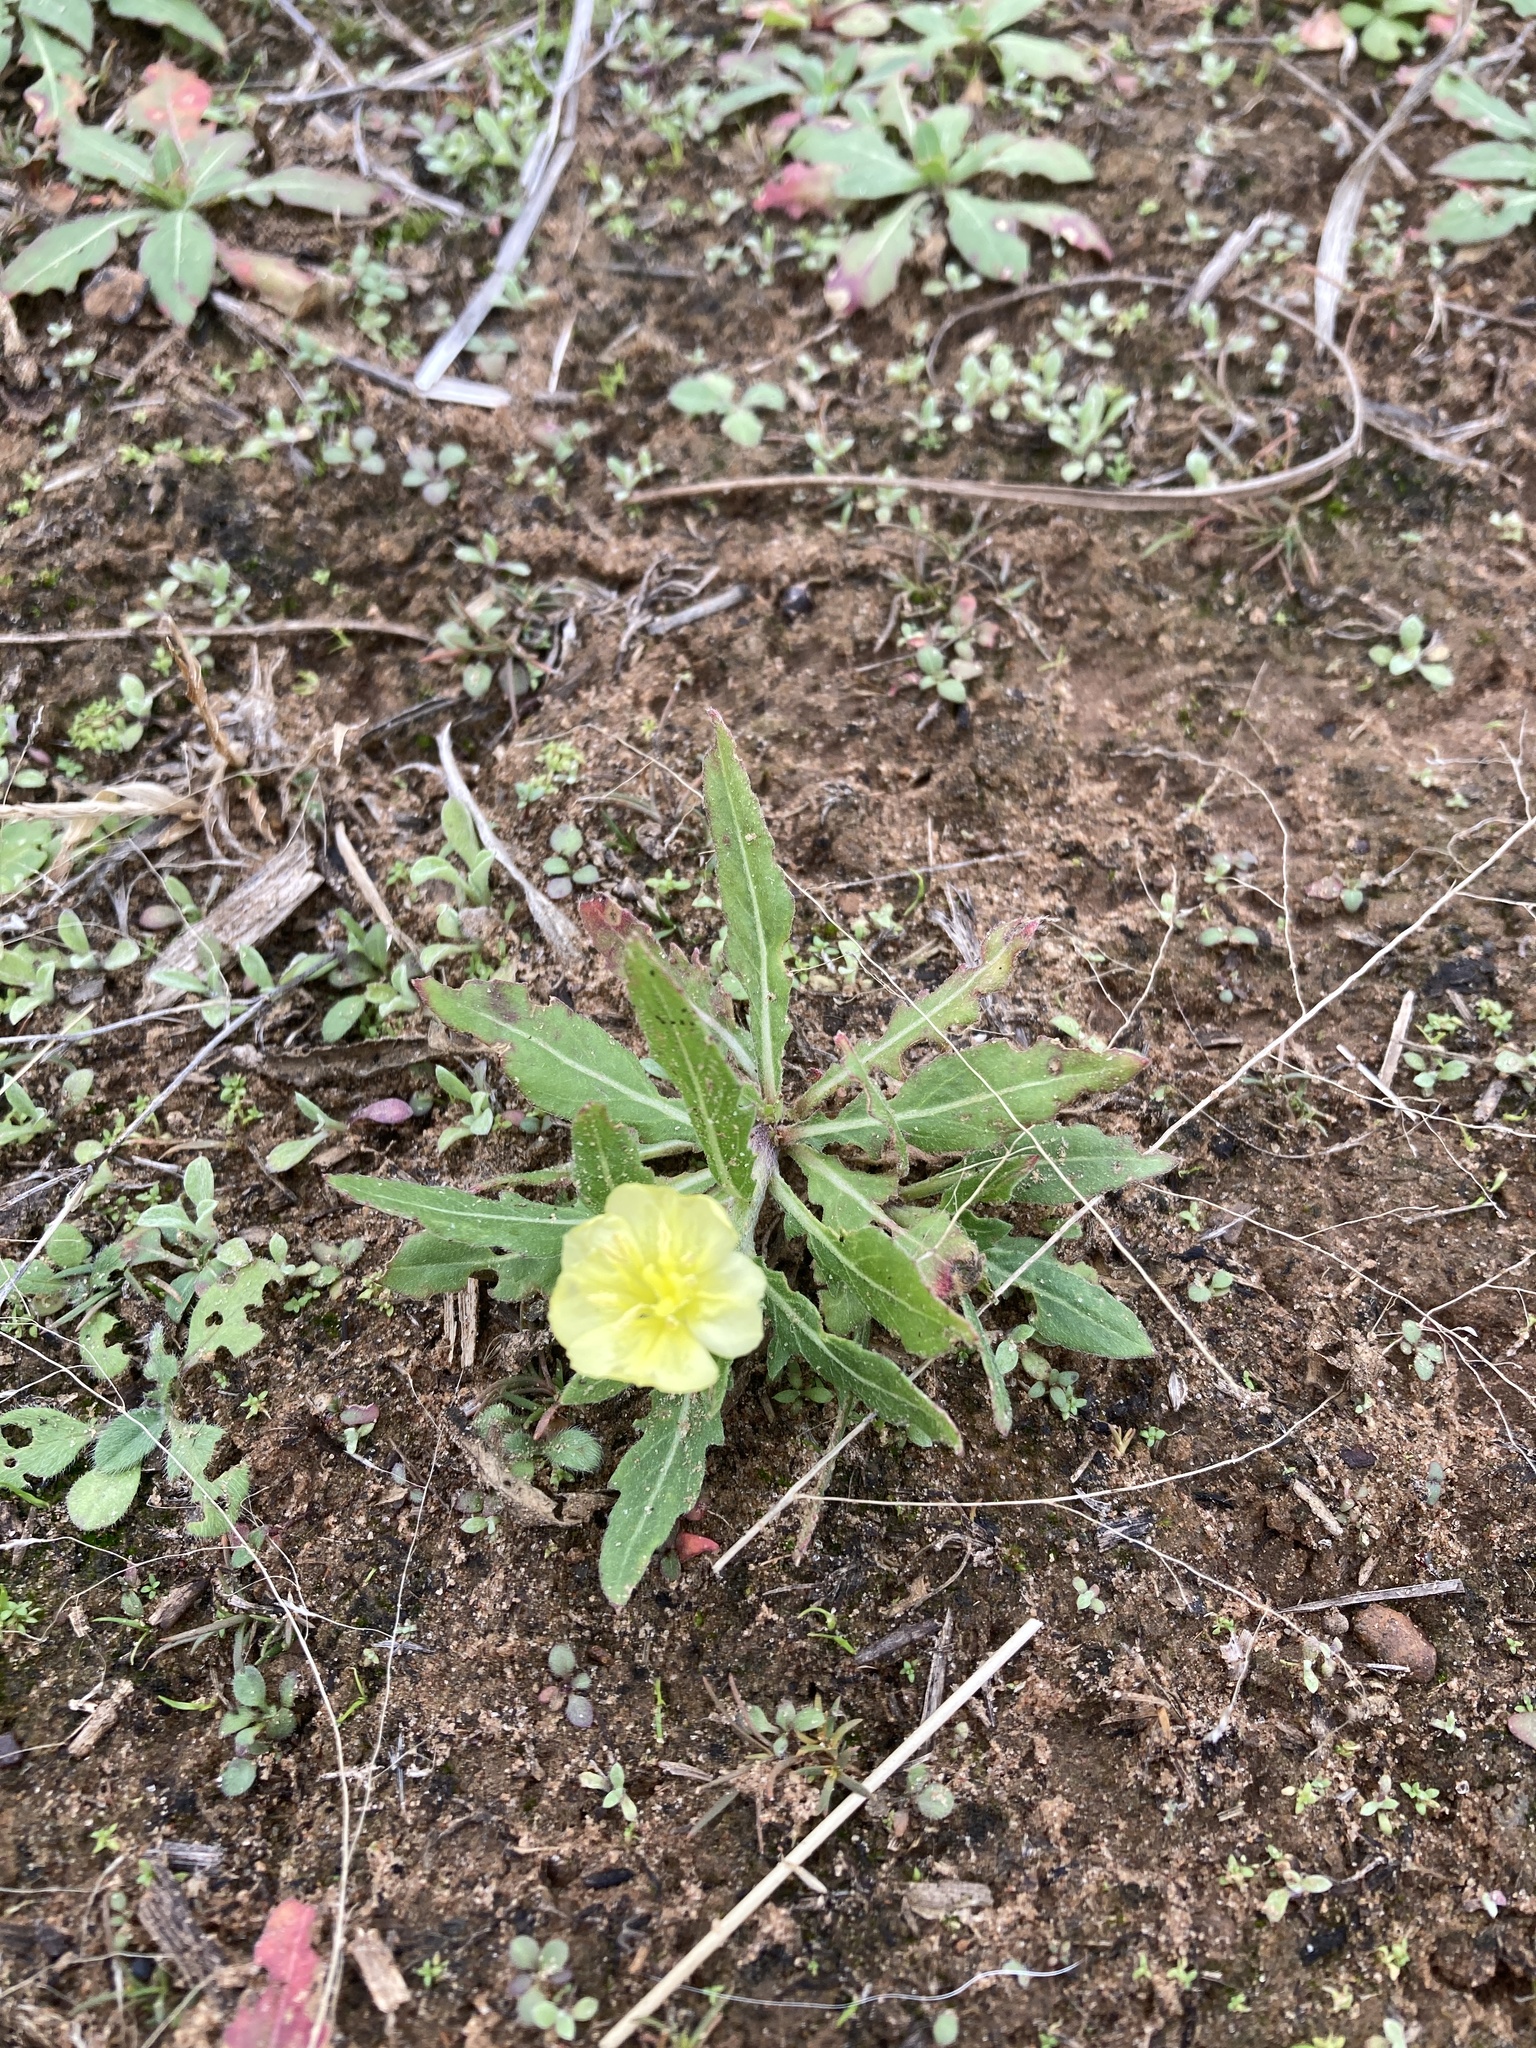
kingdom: Plantae
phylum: Tracheophyta
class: Magnoliopsida
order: Myrtales
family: Onagraceae
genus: Oenothera
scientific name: Oenothera laciniata
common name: Cut-leaved evening-primrose
